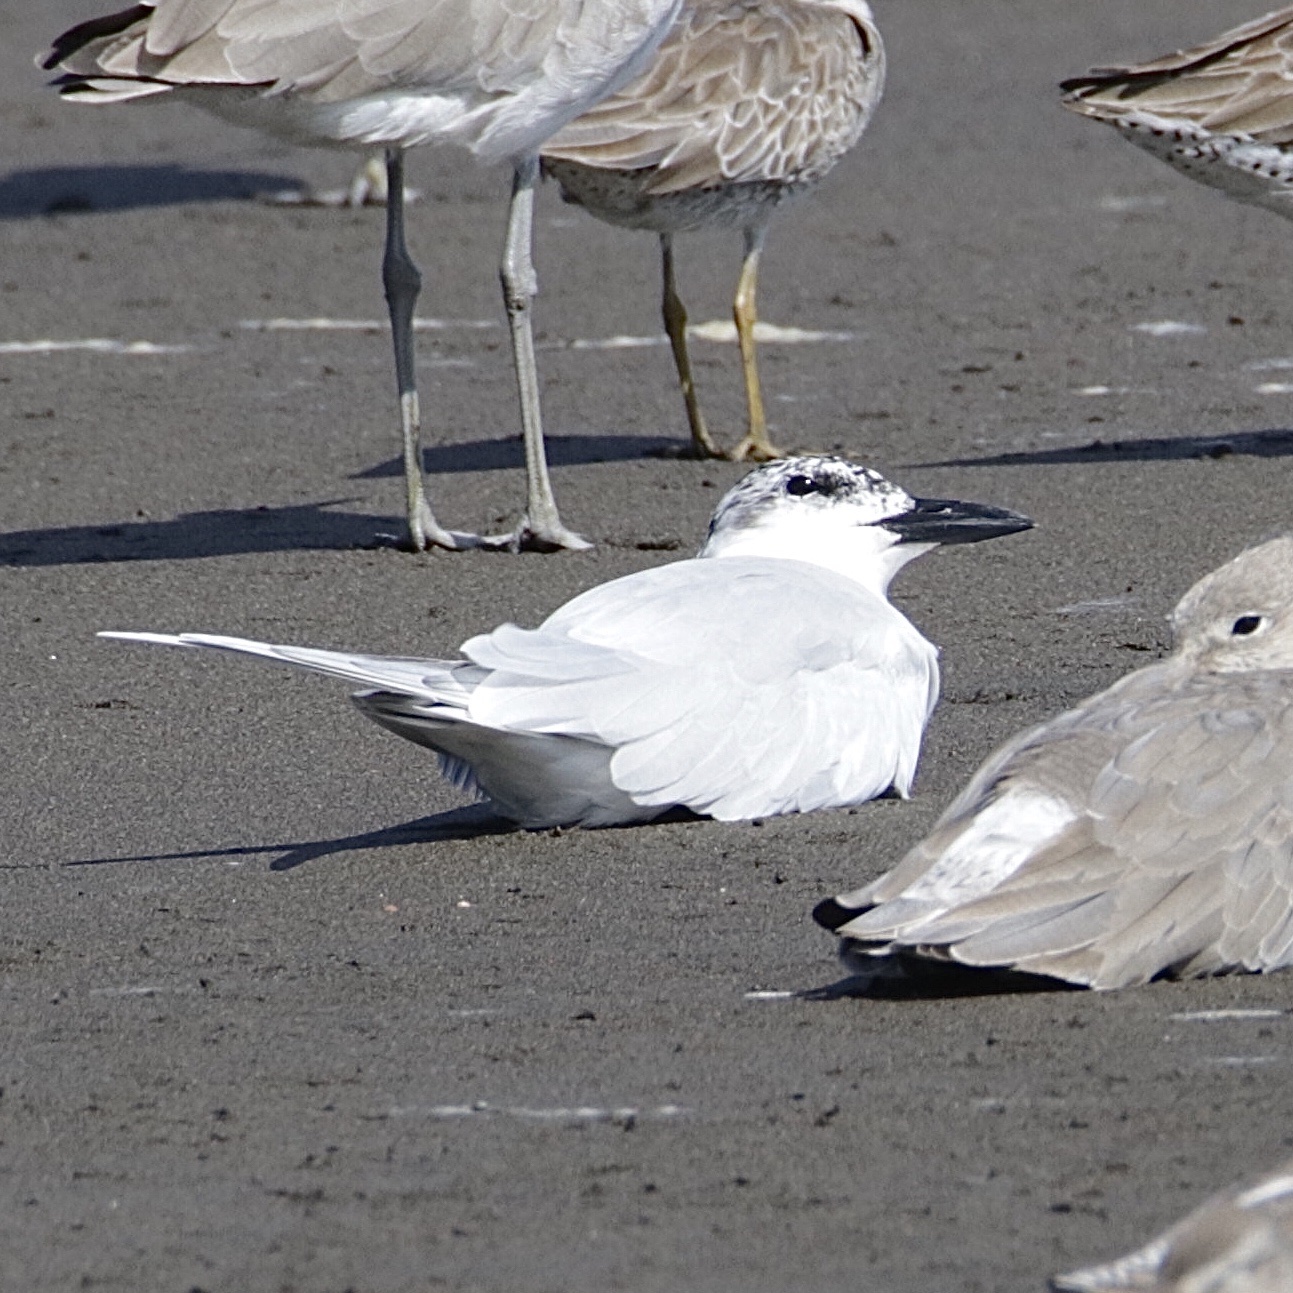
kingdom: Animalia
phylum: Chordata
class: Aves
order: Charadriiformes
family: Laridae
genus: Gelochelidon
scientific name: Gelochelidon nilotica
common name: Gull-billed tern
